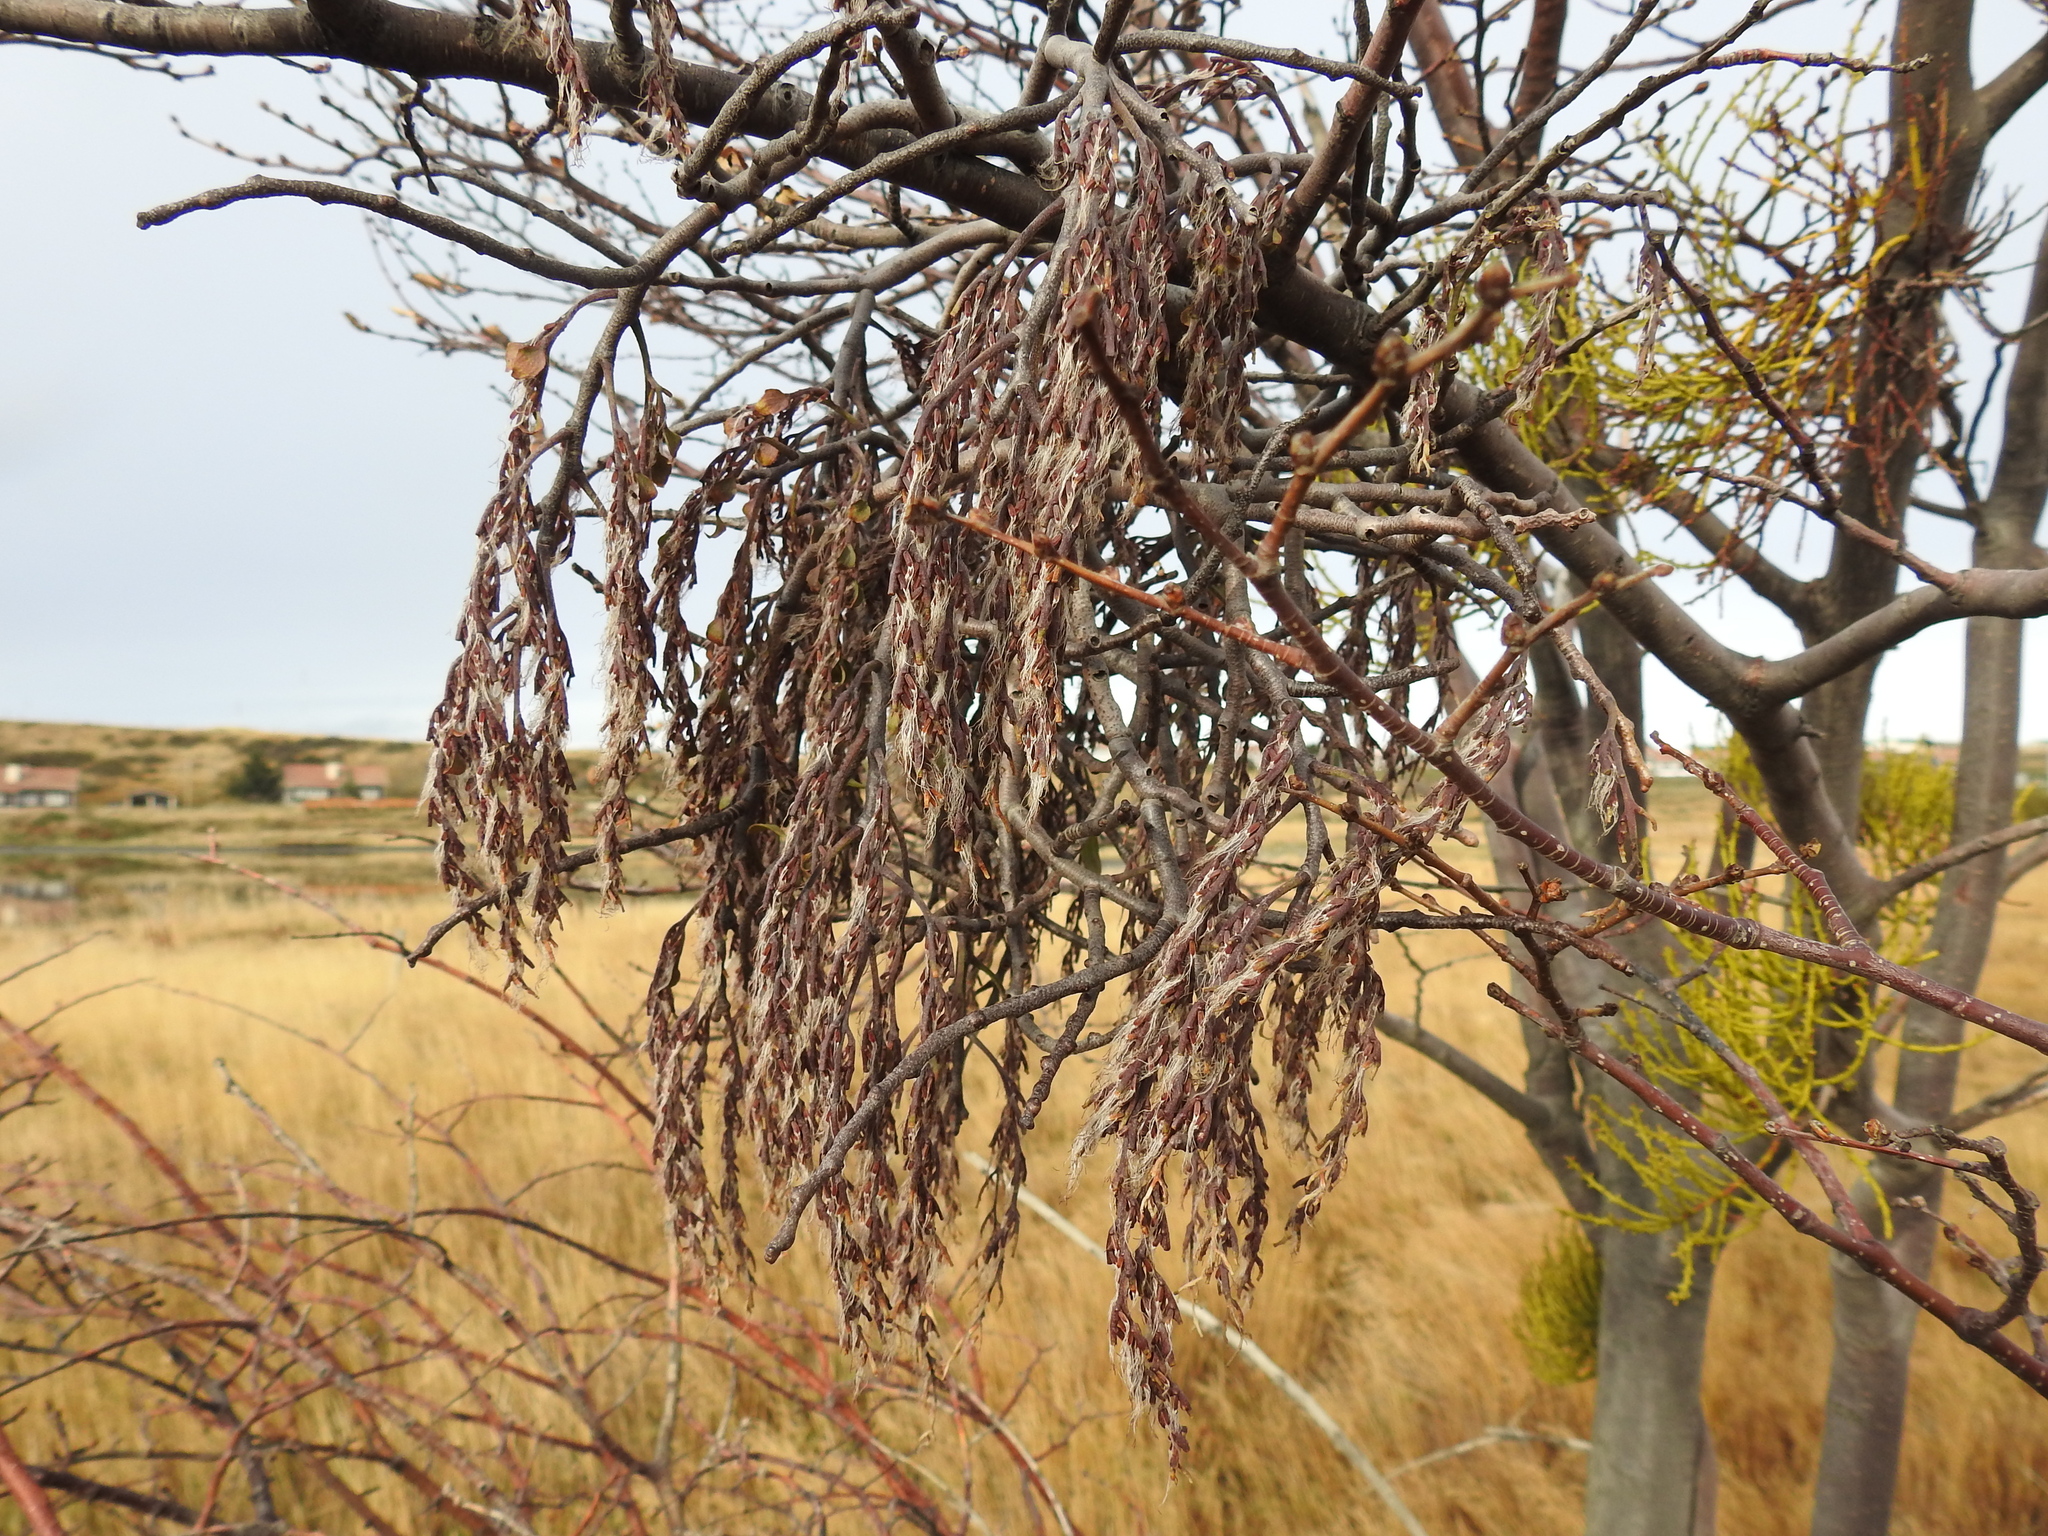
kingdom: Plantae
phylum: Tracheophyta
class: Magnoliopsida
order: Santalales
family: Misodendraceae
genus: Misodendrum
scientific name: Misodendrum quadriflorum
